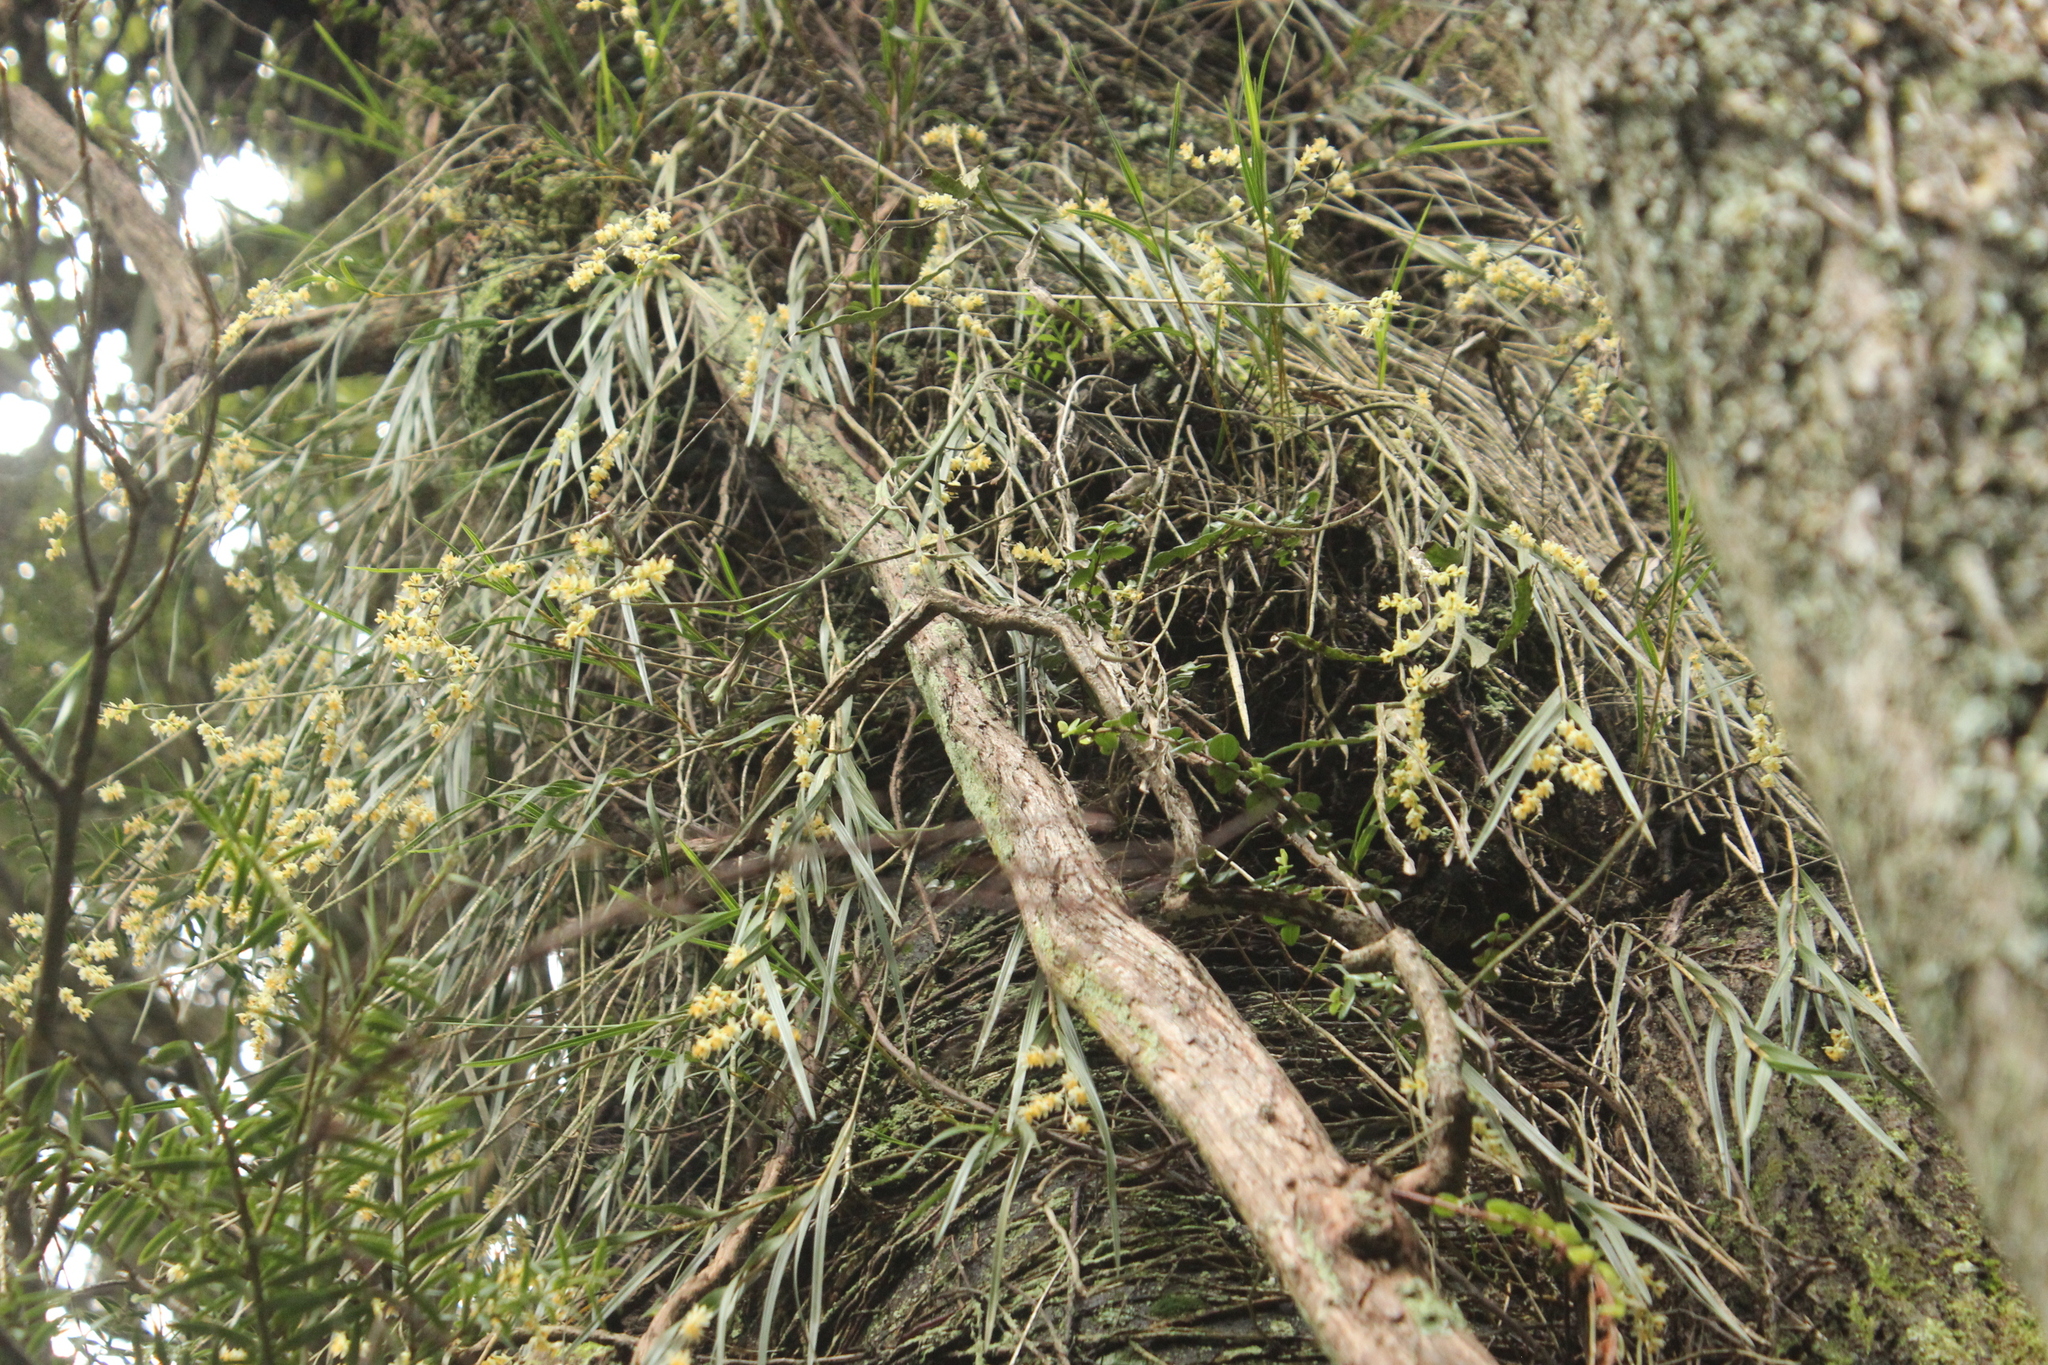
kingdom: Plantae
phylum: Tracheophyta
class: Liliopsida
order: Asparagales
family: Orchidaceae
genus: Earina
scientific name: Earina mucronata
